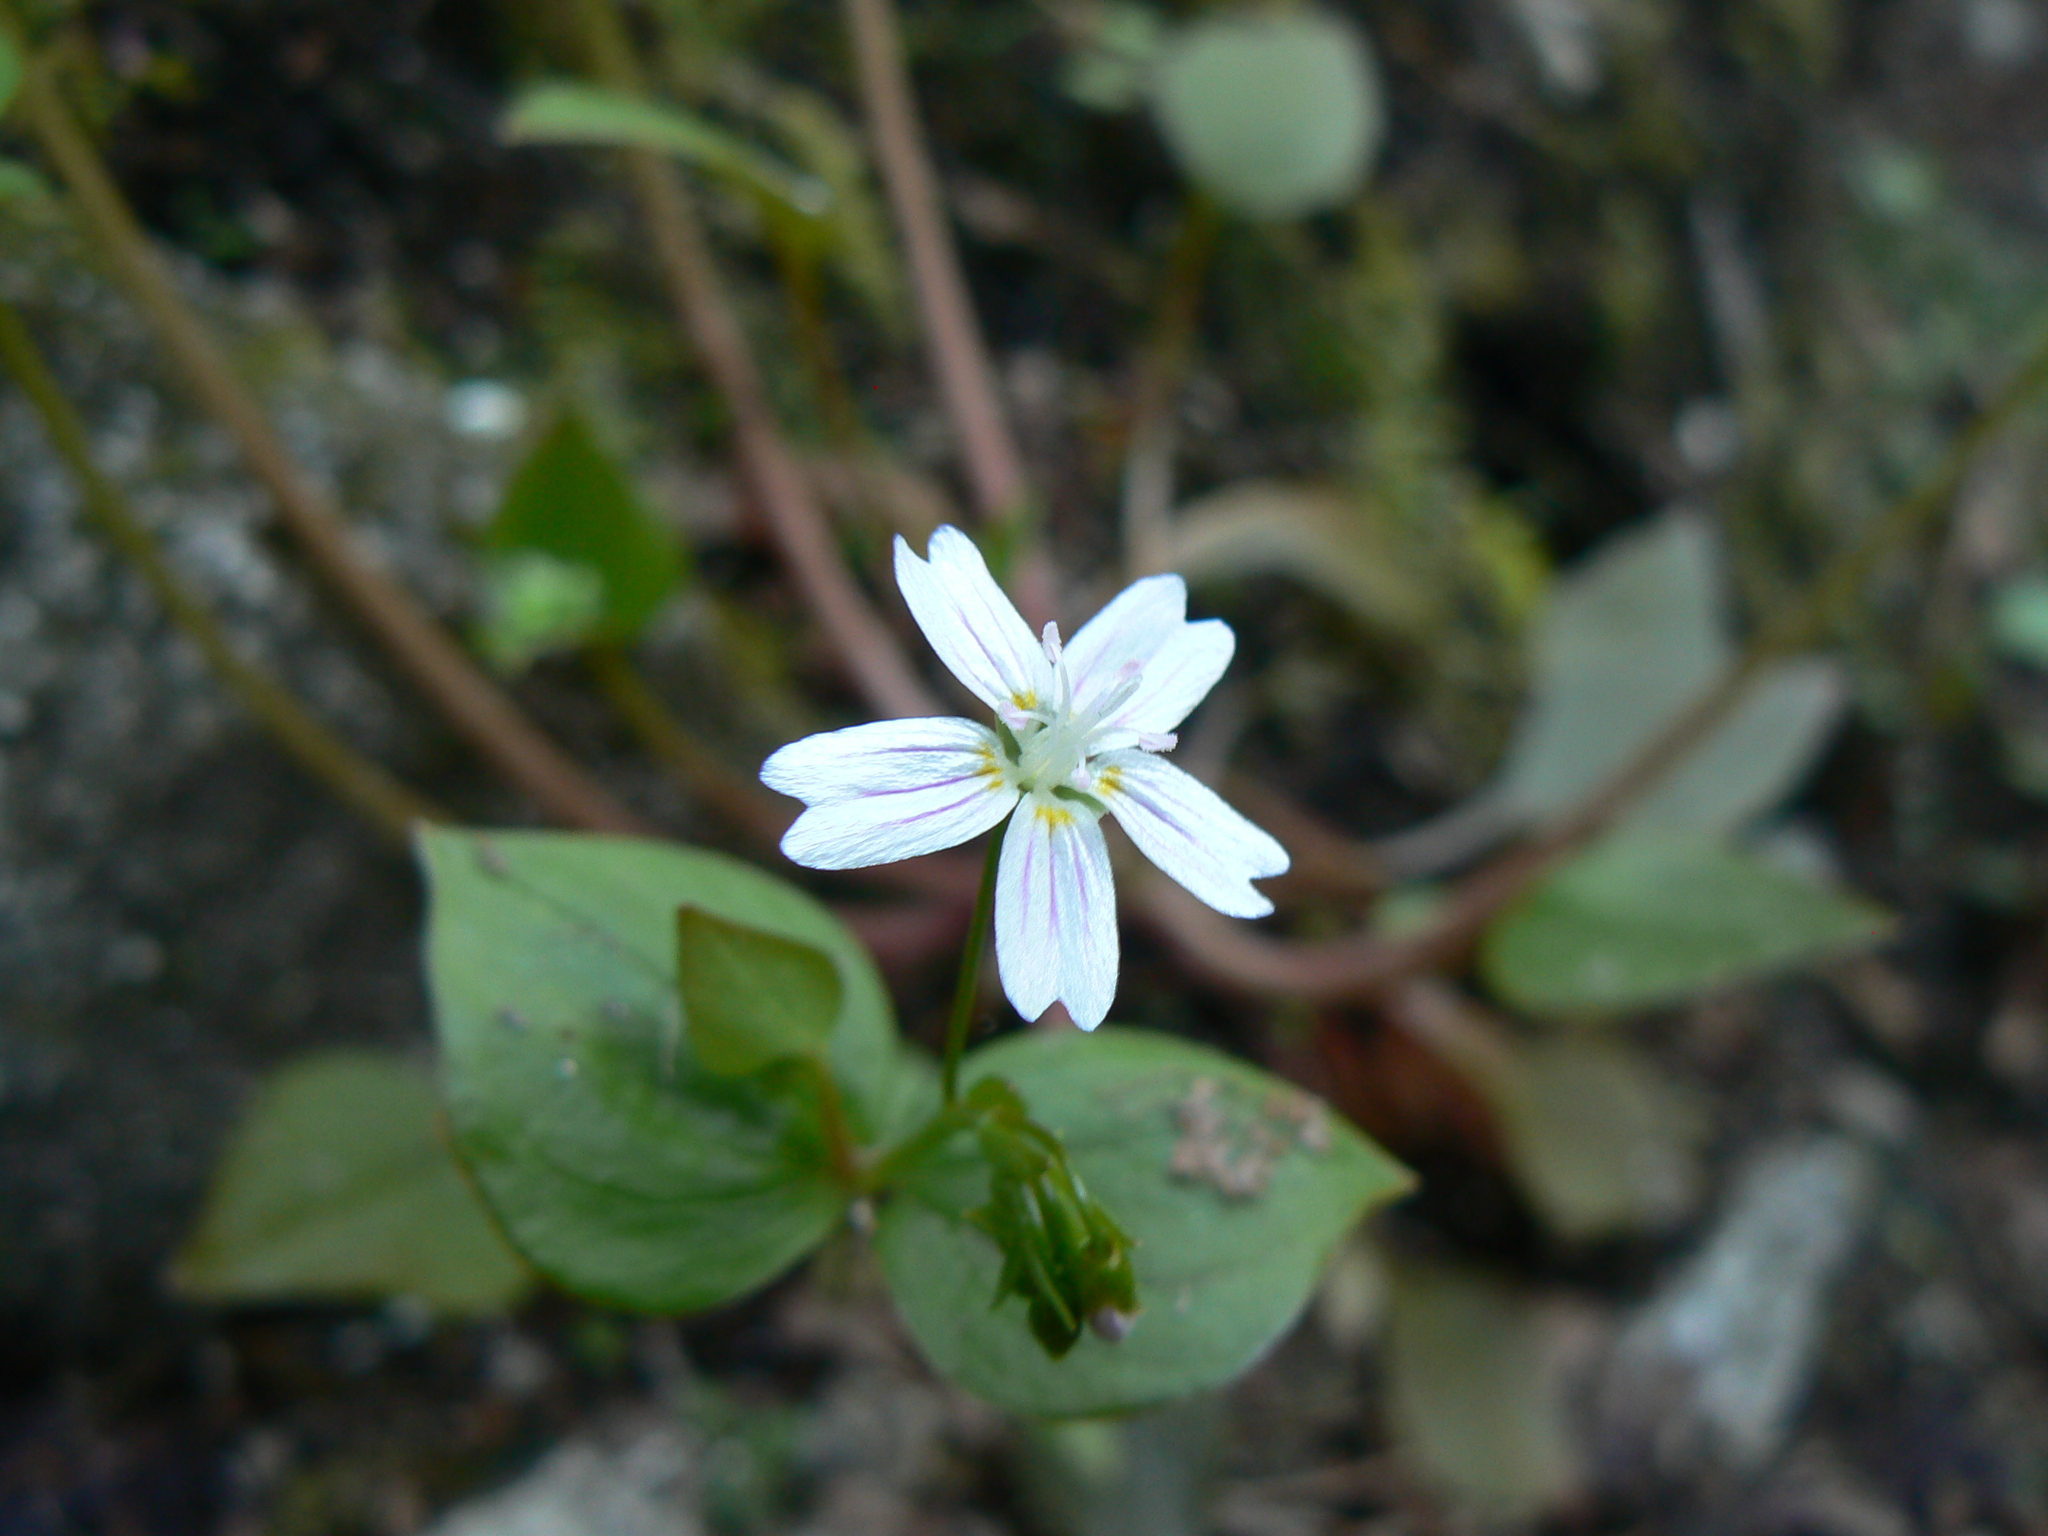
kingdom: Plantae
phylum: Tracheophyta
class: Magnoliopsida
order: Caryophyllales
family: Montiaceae
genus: Claytonia
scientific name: Claytonia sibirica
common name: Pink purslane
